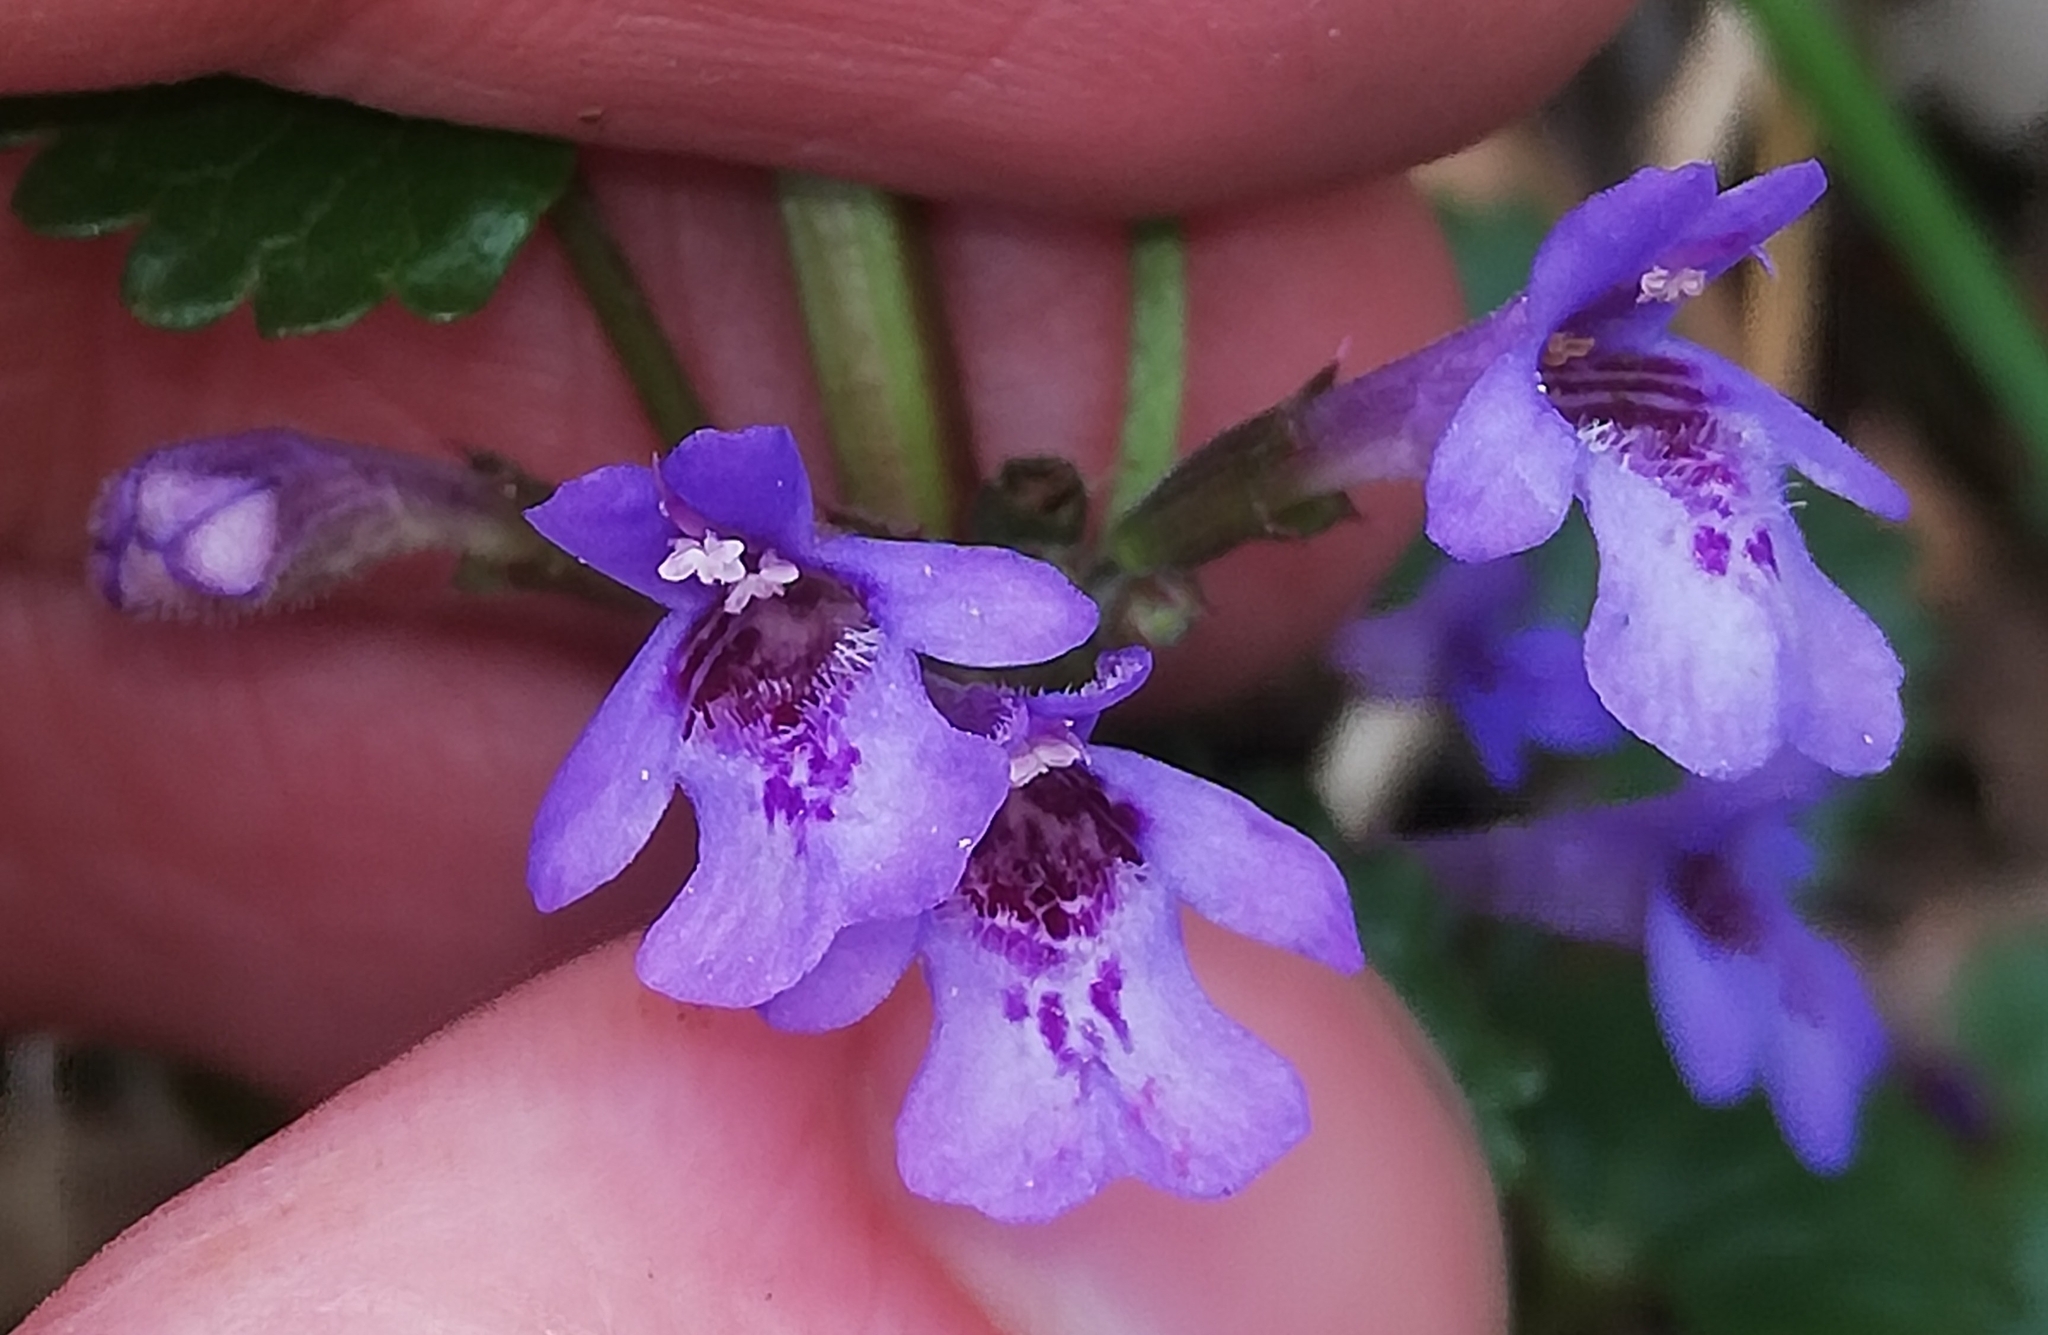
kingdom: Plantae
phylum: Tracheophyta
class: Magnoliopsida
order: Lamiales
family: Lamiaceae
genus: Glechoma
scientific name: Glechoma hederacea
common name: Ground ivy
